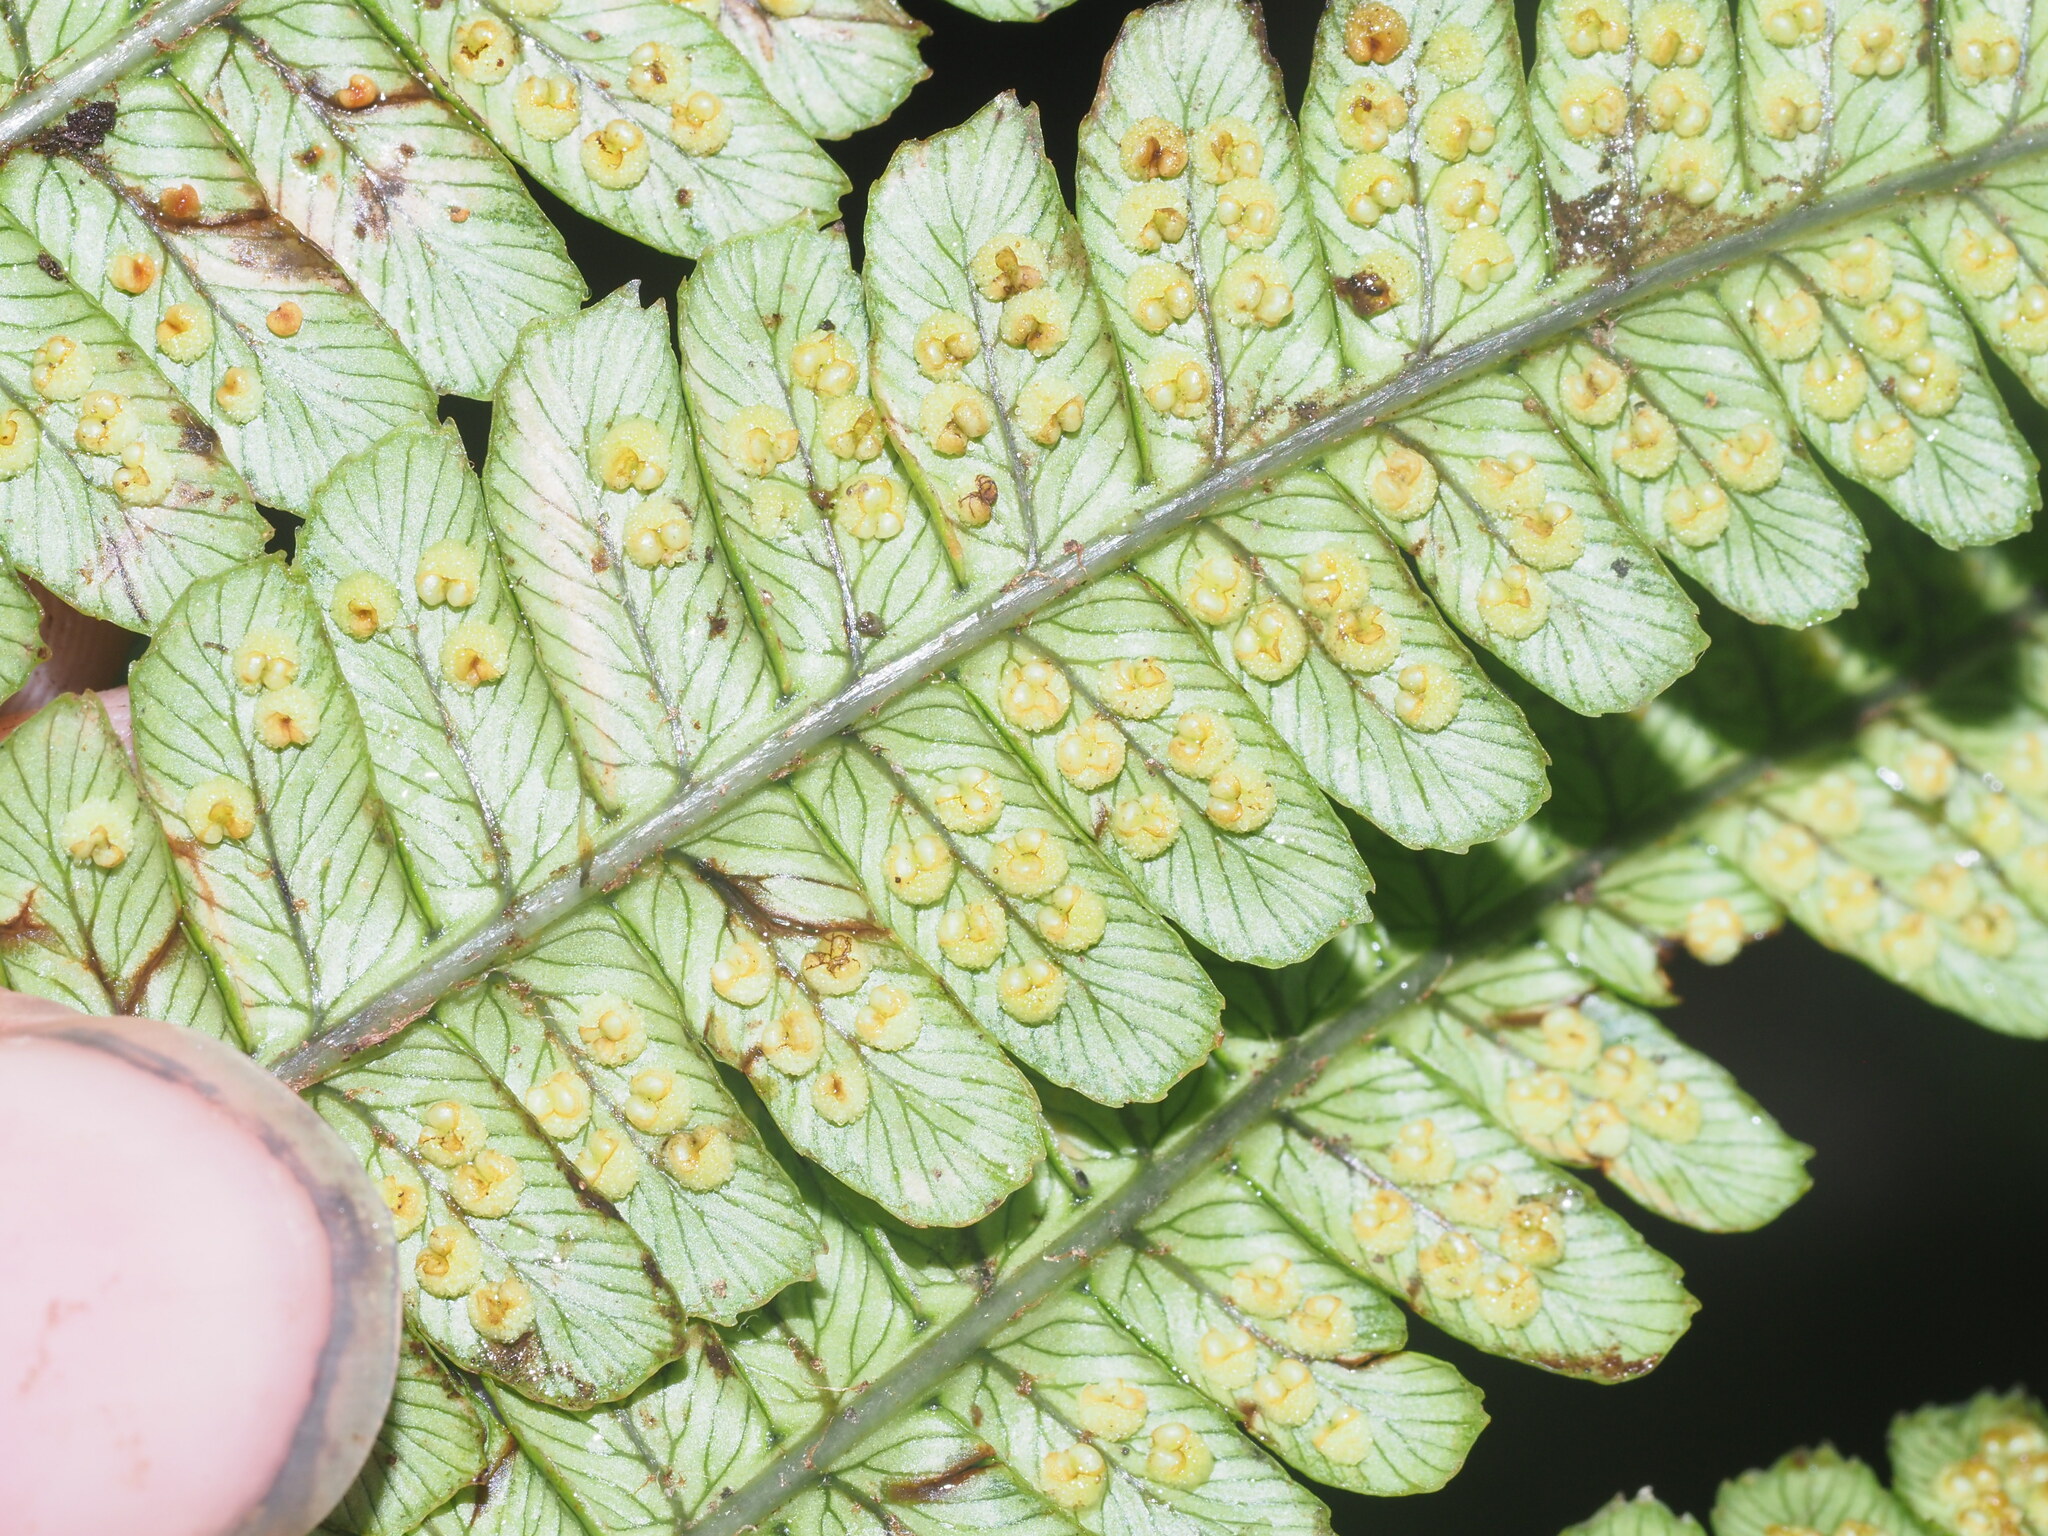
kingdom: Plantae
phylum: Tracheophyta
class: Polypodiopsida
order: Polypodiales
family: Dryopteridaceae
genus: Dryopteris
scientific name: Dryopteris wallichiana
